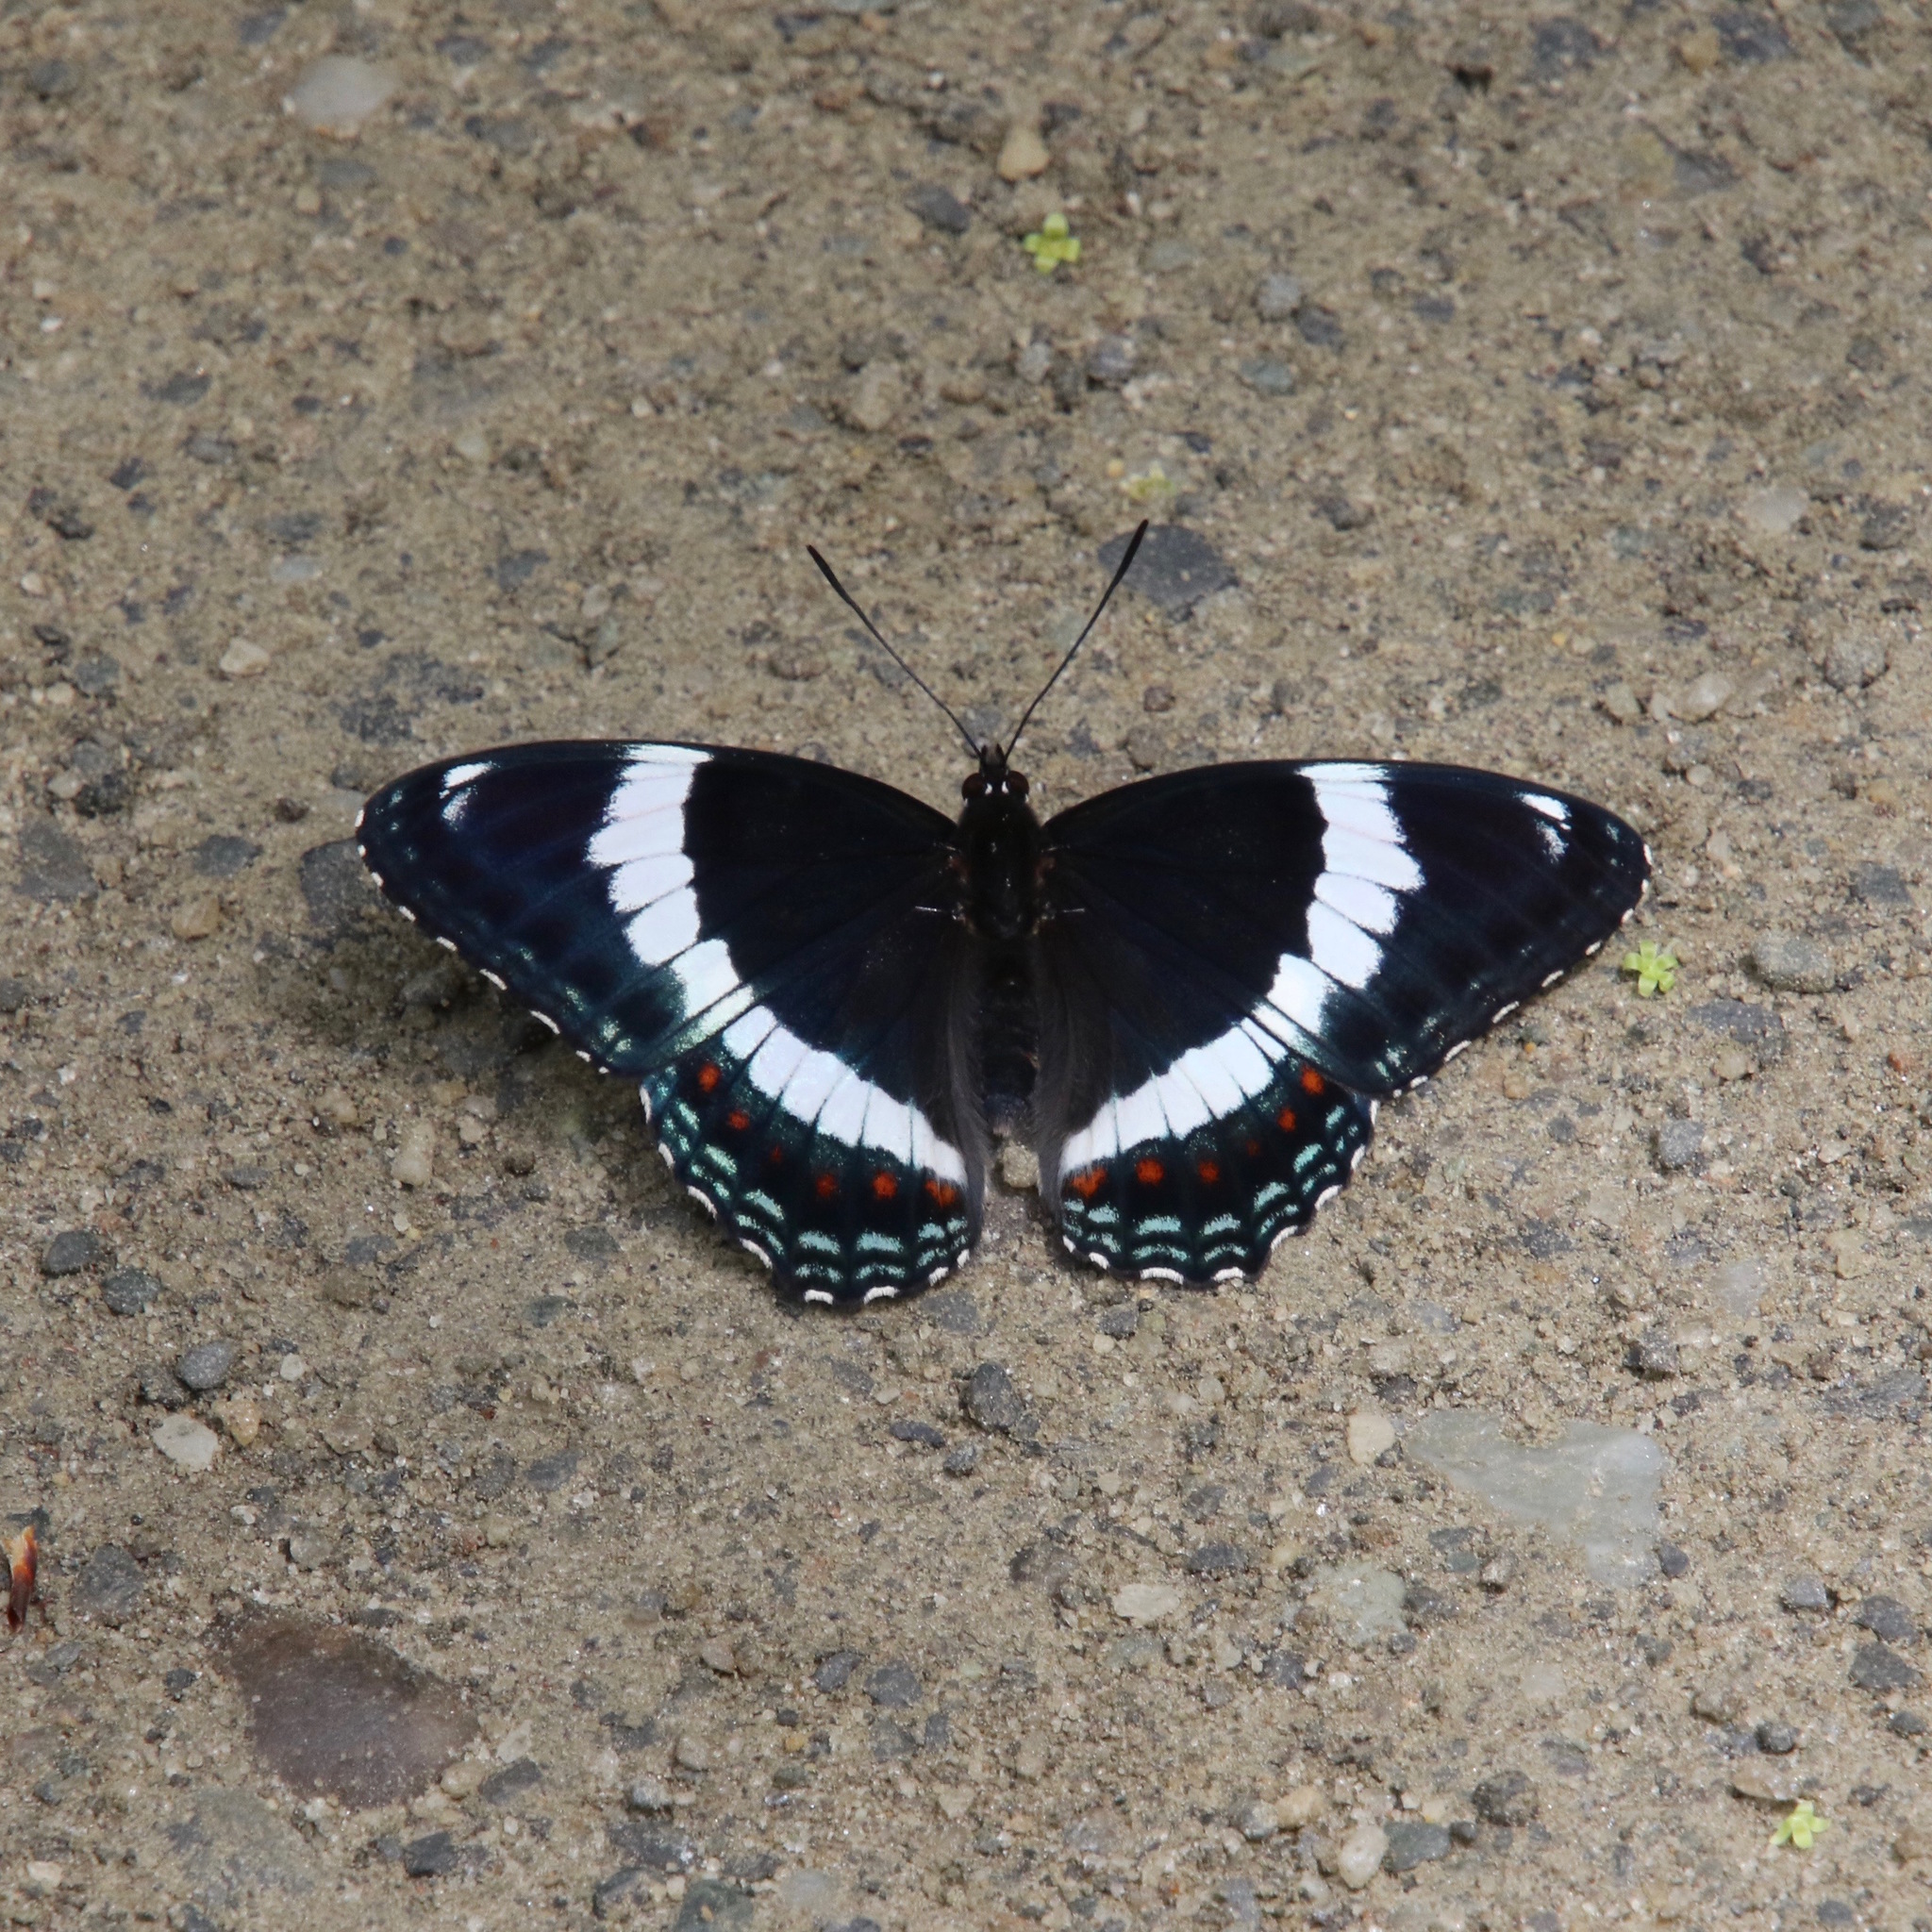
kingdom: Animalia
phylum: Arthropoda
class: Insecta
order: Lepidoptera
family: Nymphalidae
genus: Limenitis
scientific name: Limenitis arthemis
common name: Red-spotted admiral
